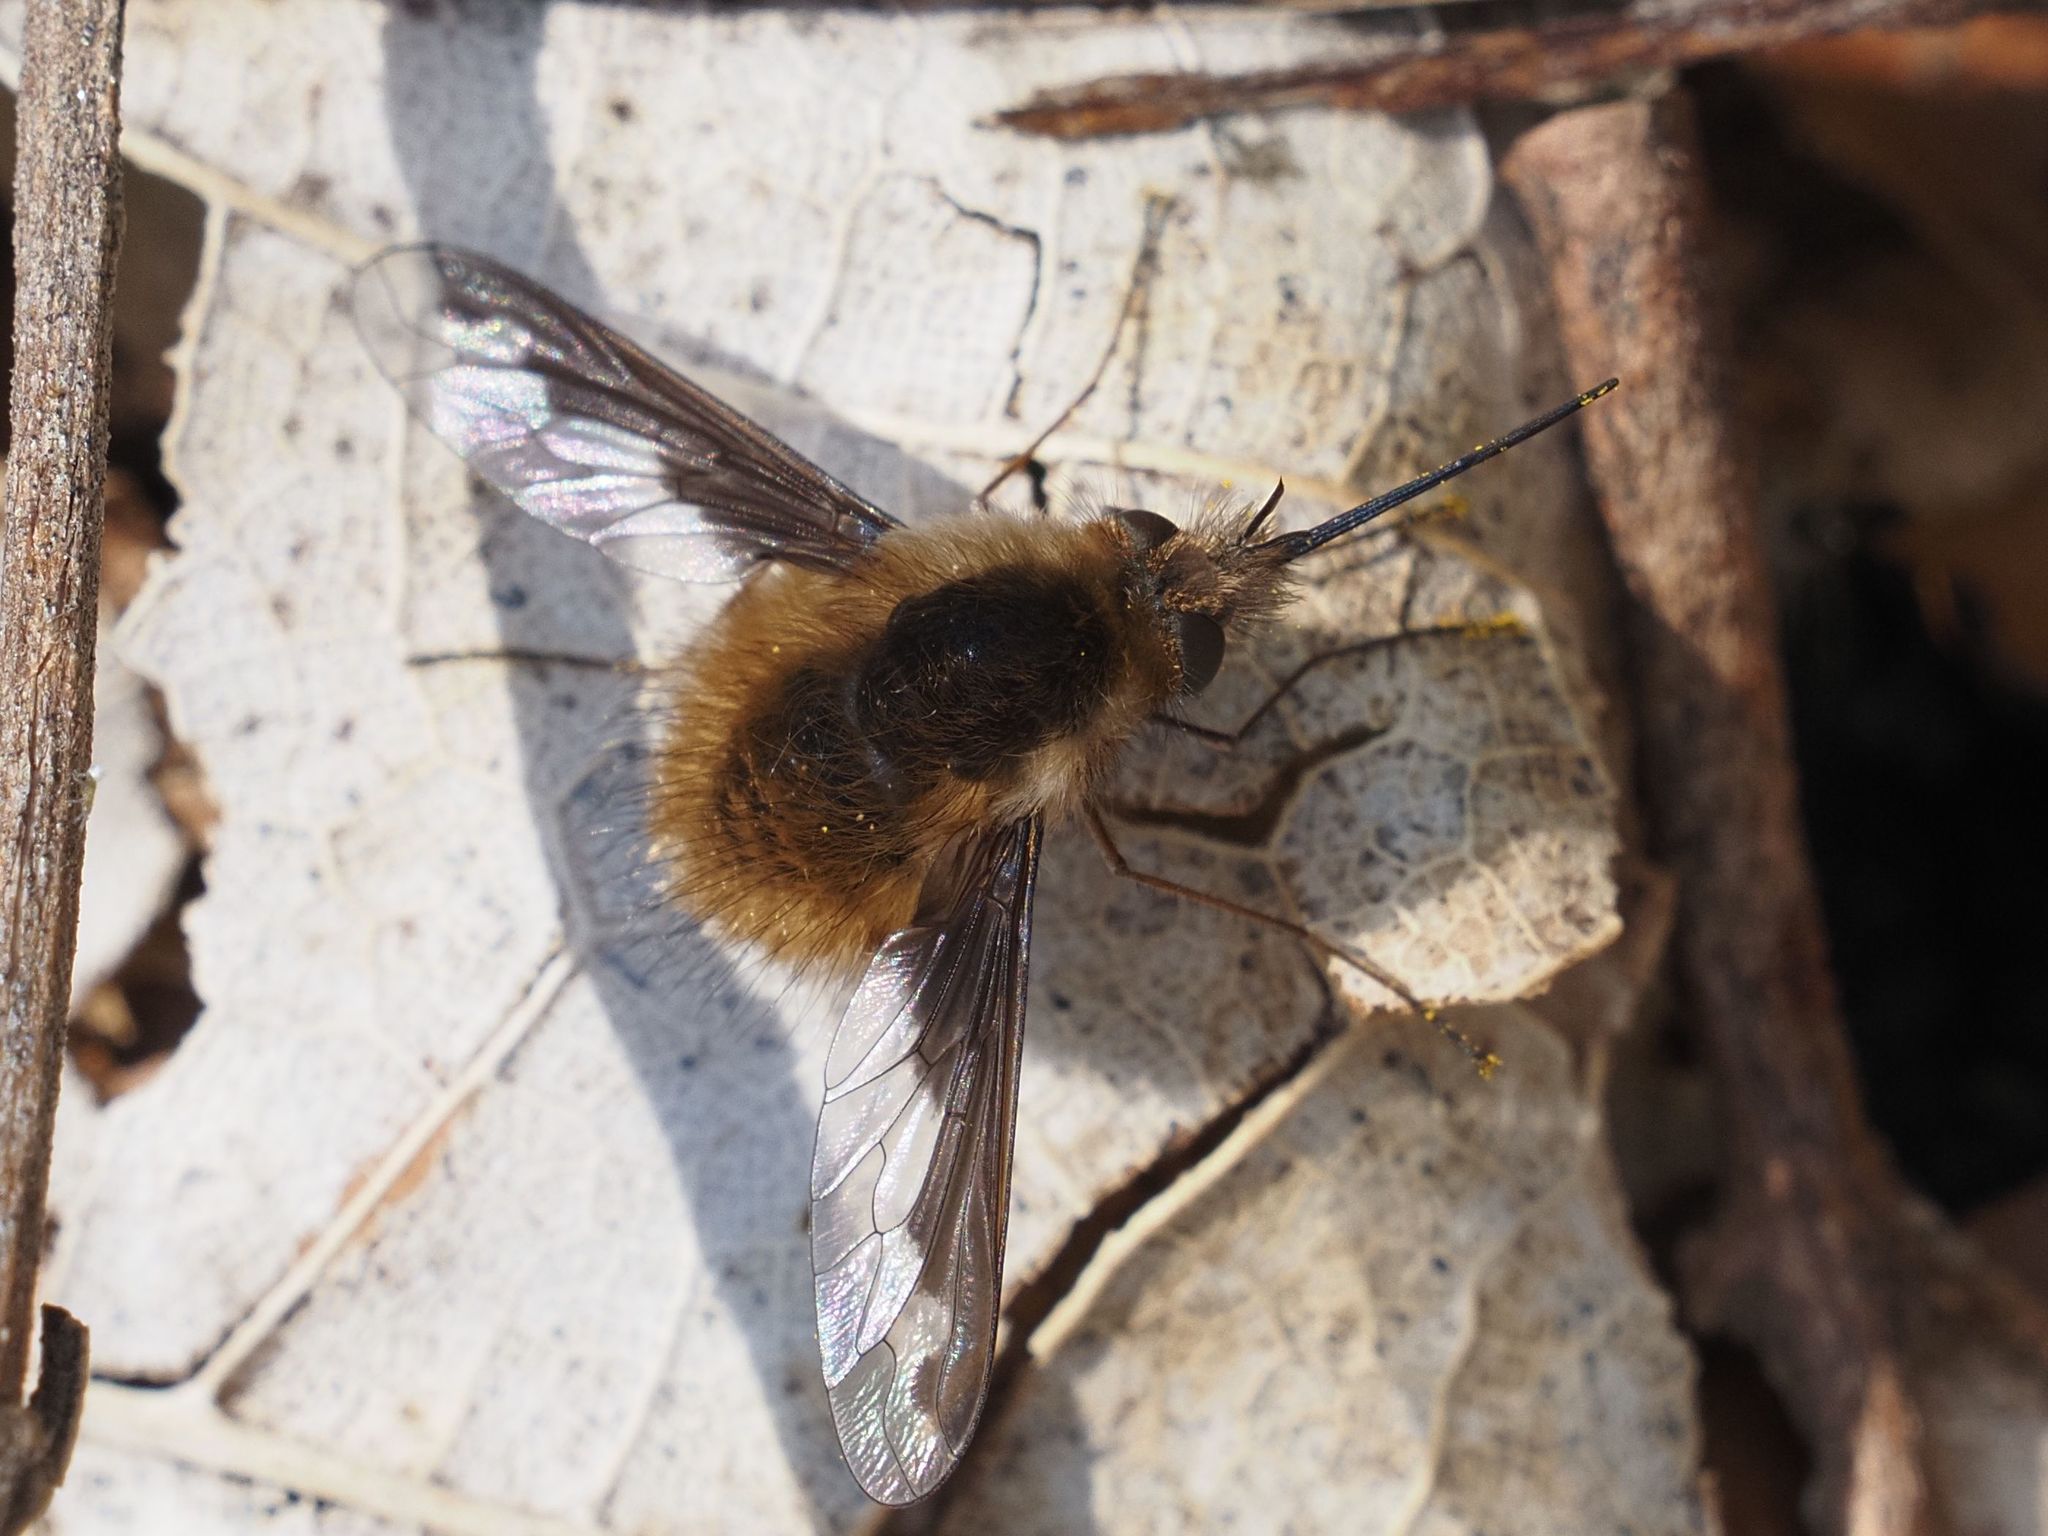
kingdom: Animalia
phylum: Arthropoda
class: Insecta
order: Diptera
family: Bombyliidae
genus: Bombylius
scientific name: Bombylius major
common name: Bee fly
